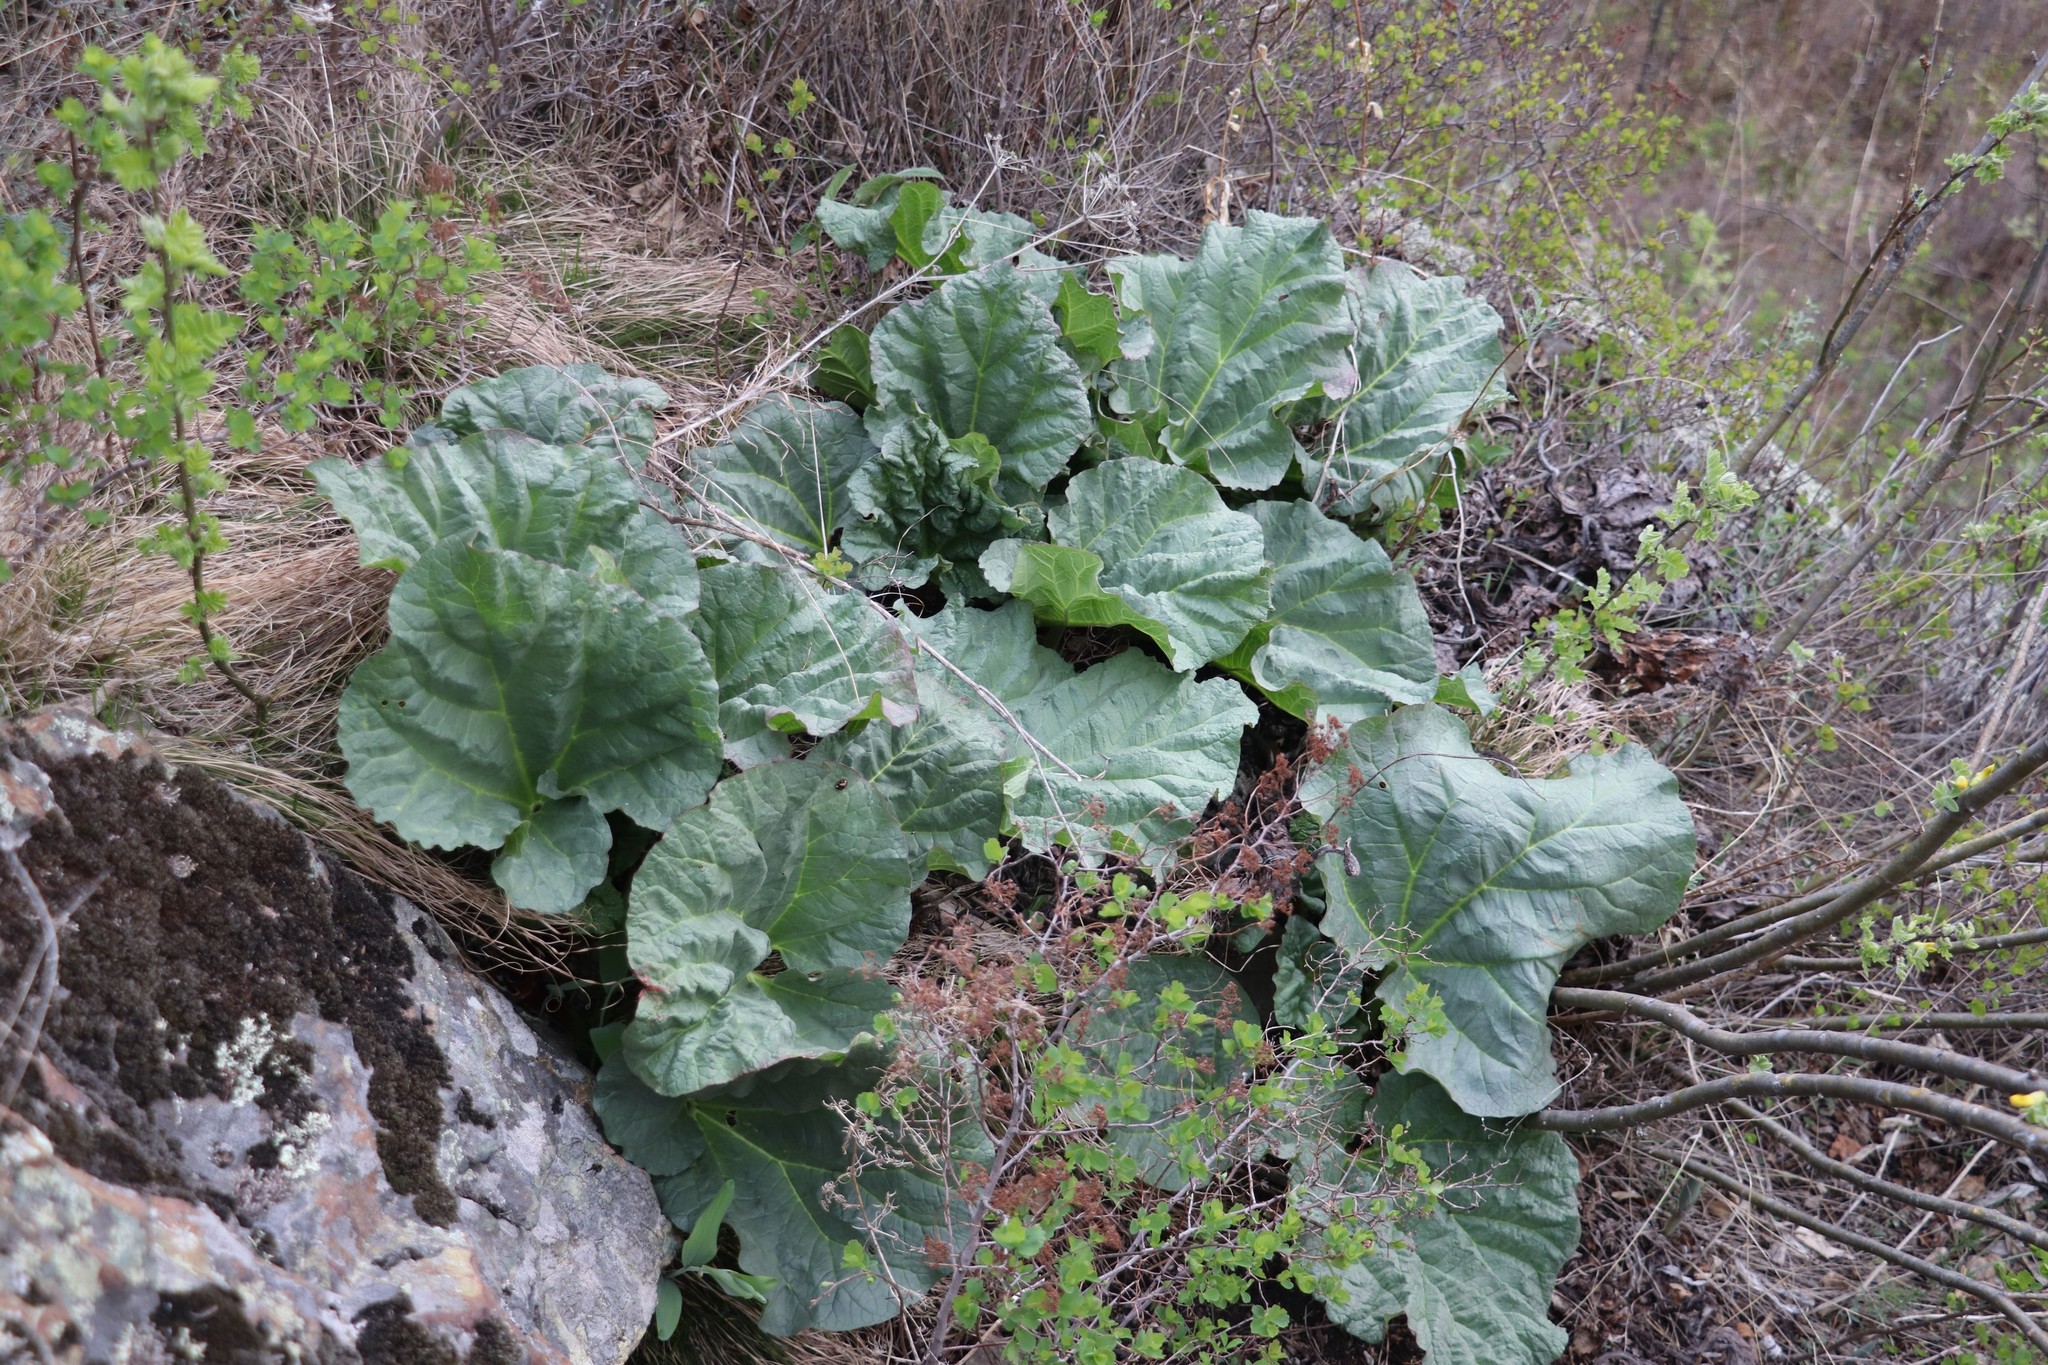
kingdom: Plantae
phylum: Tracheophyta
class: Magnoliopsida
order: Caryophyllales
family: Polygonaceae
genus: Rheum
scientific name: Rheum compactum
